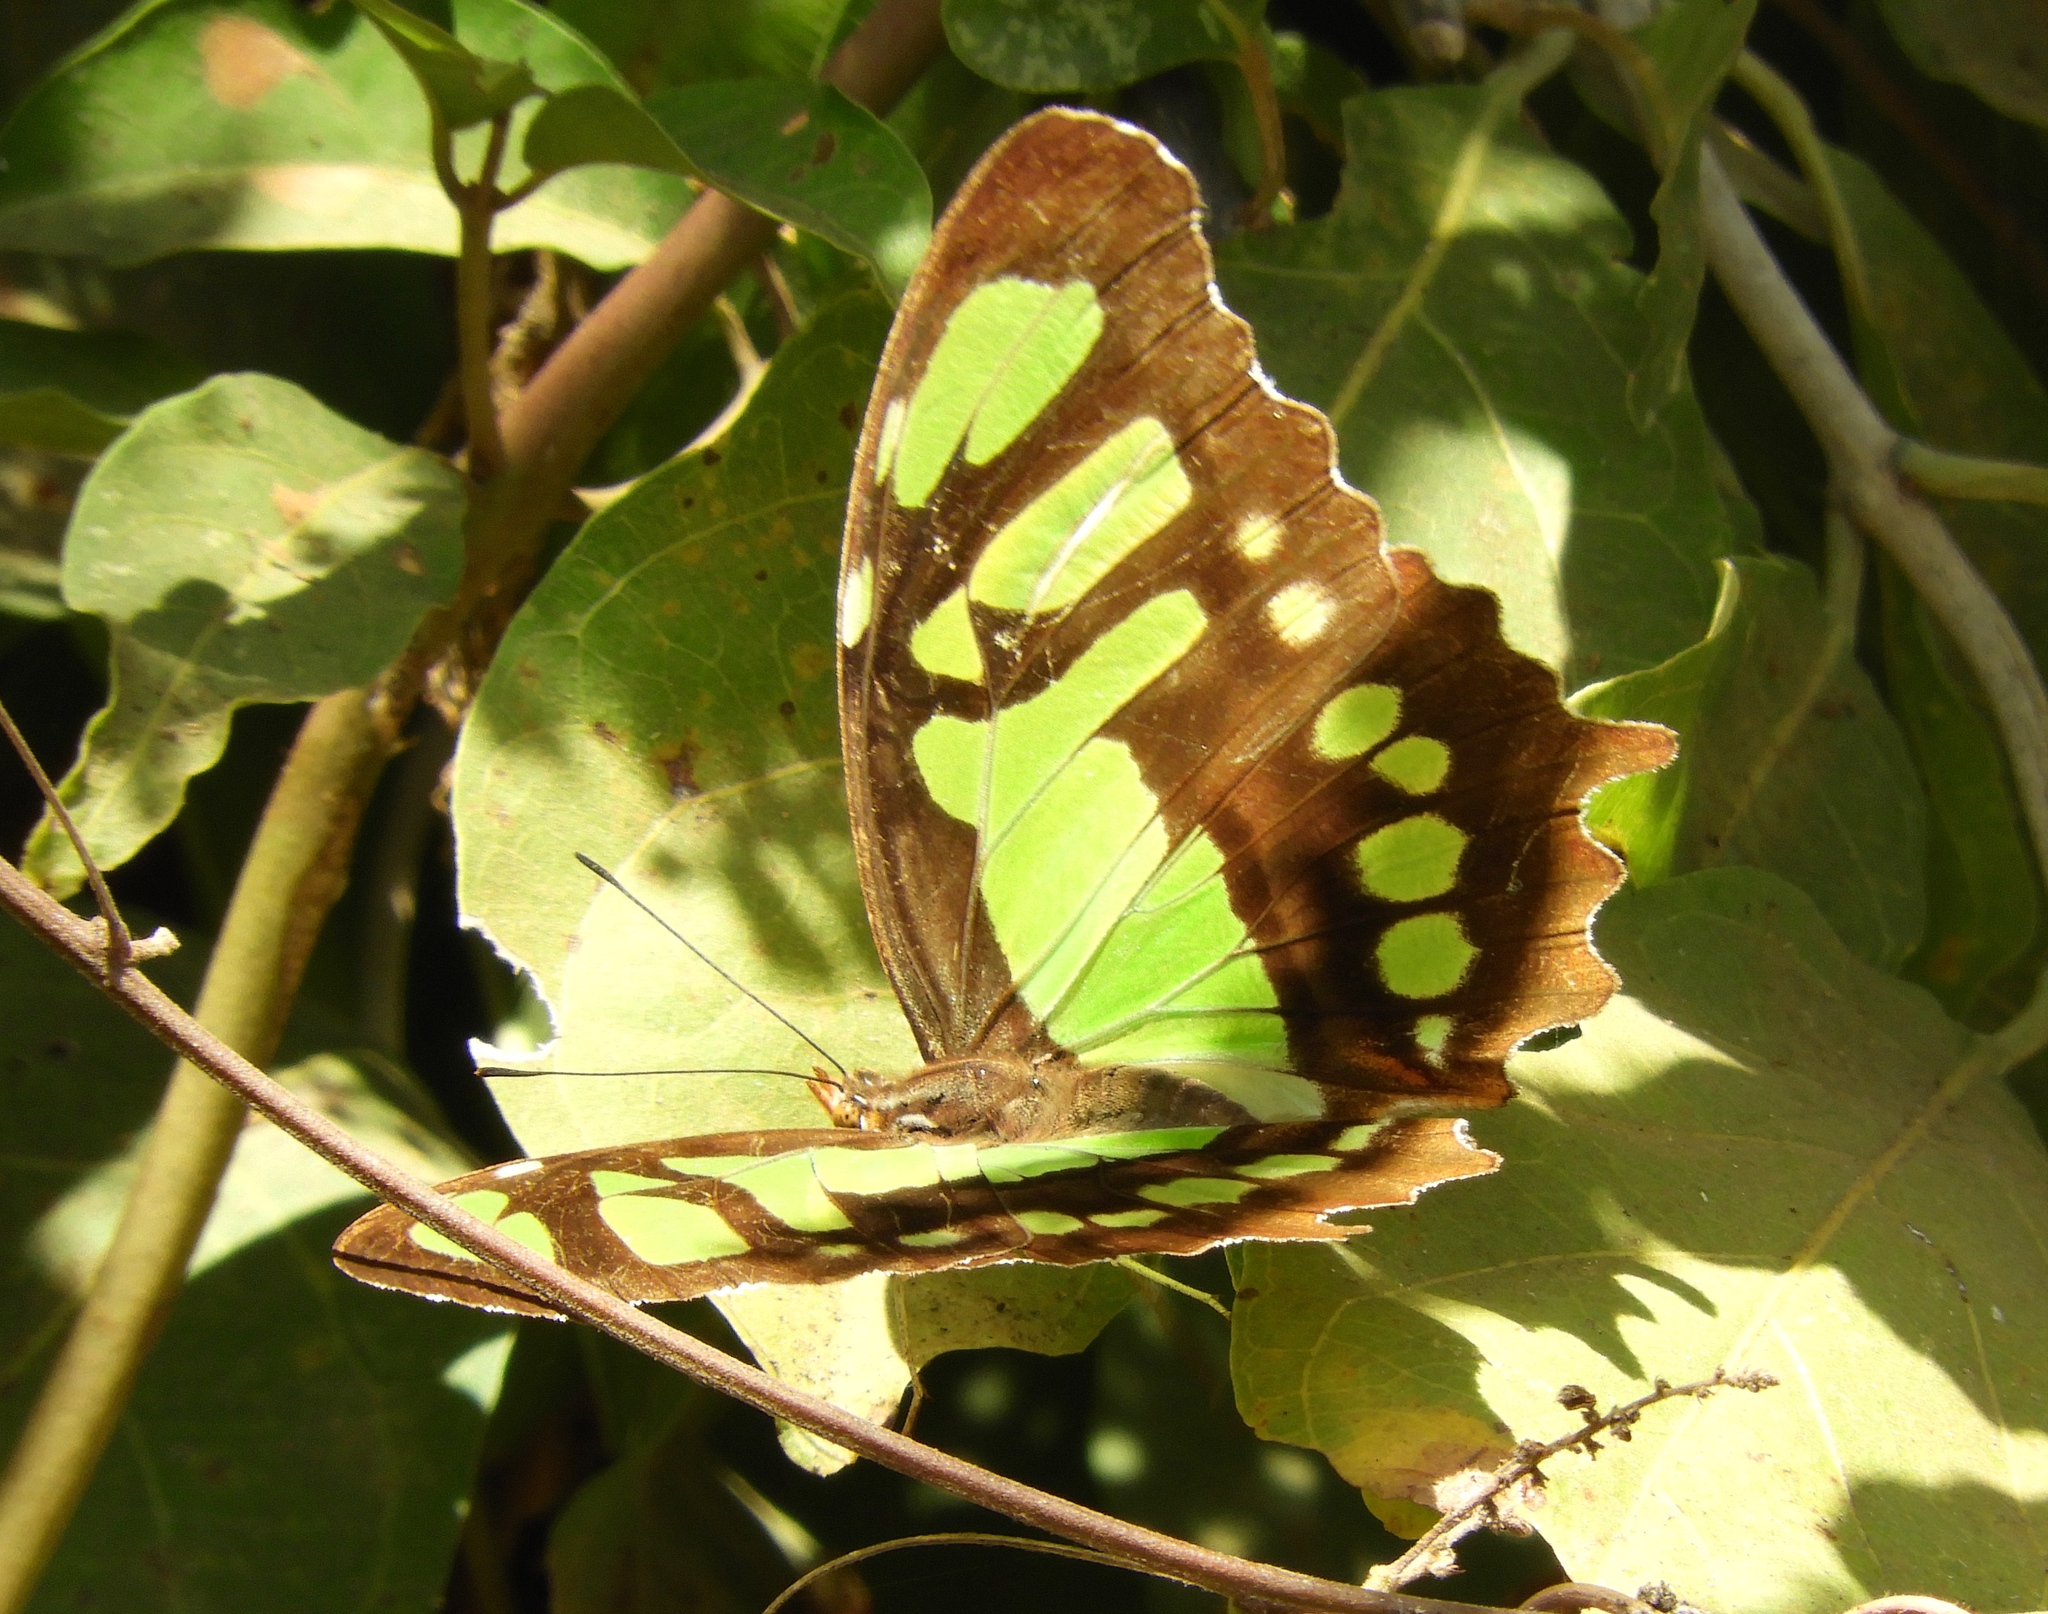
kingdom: Animalia
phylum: Arthropoda
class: Insecta
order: Lepidoptera
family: Nymphalidae
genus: Siproeta
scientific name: Siproeta stelenes
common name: Malachite
